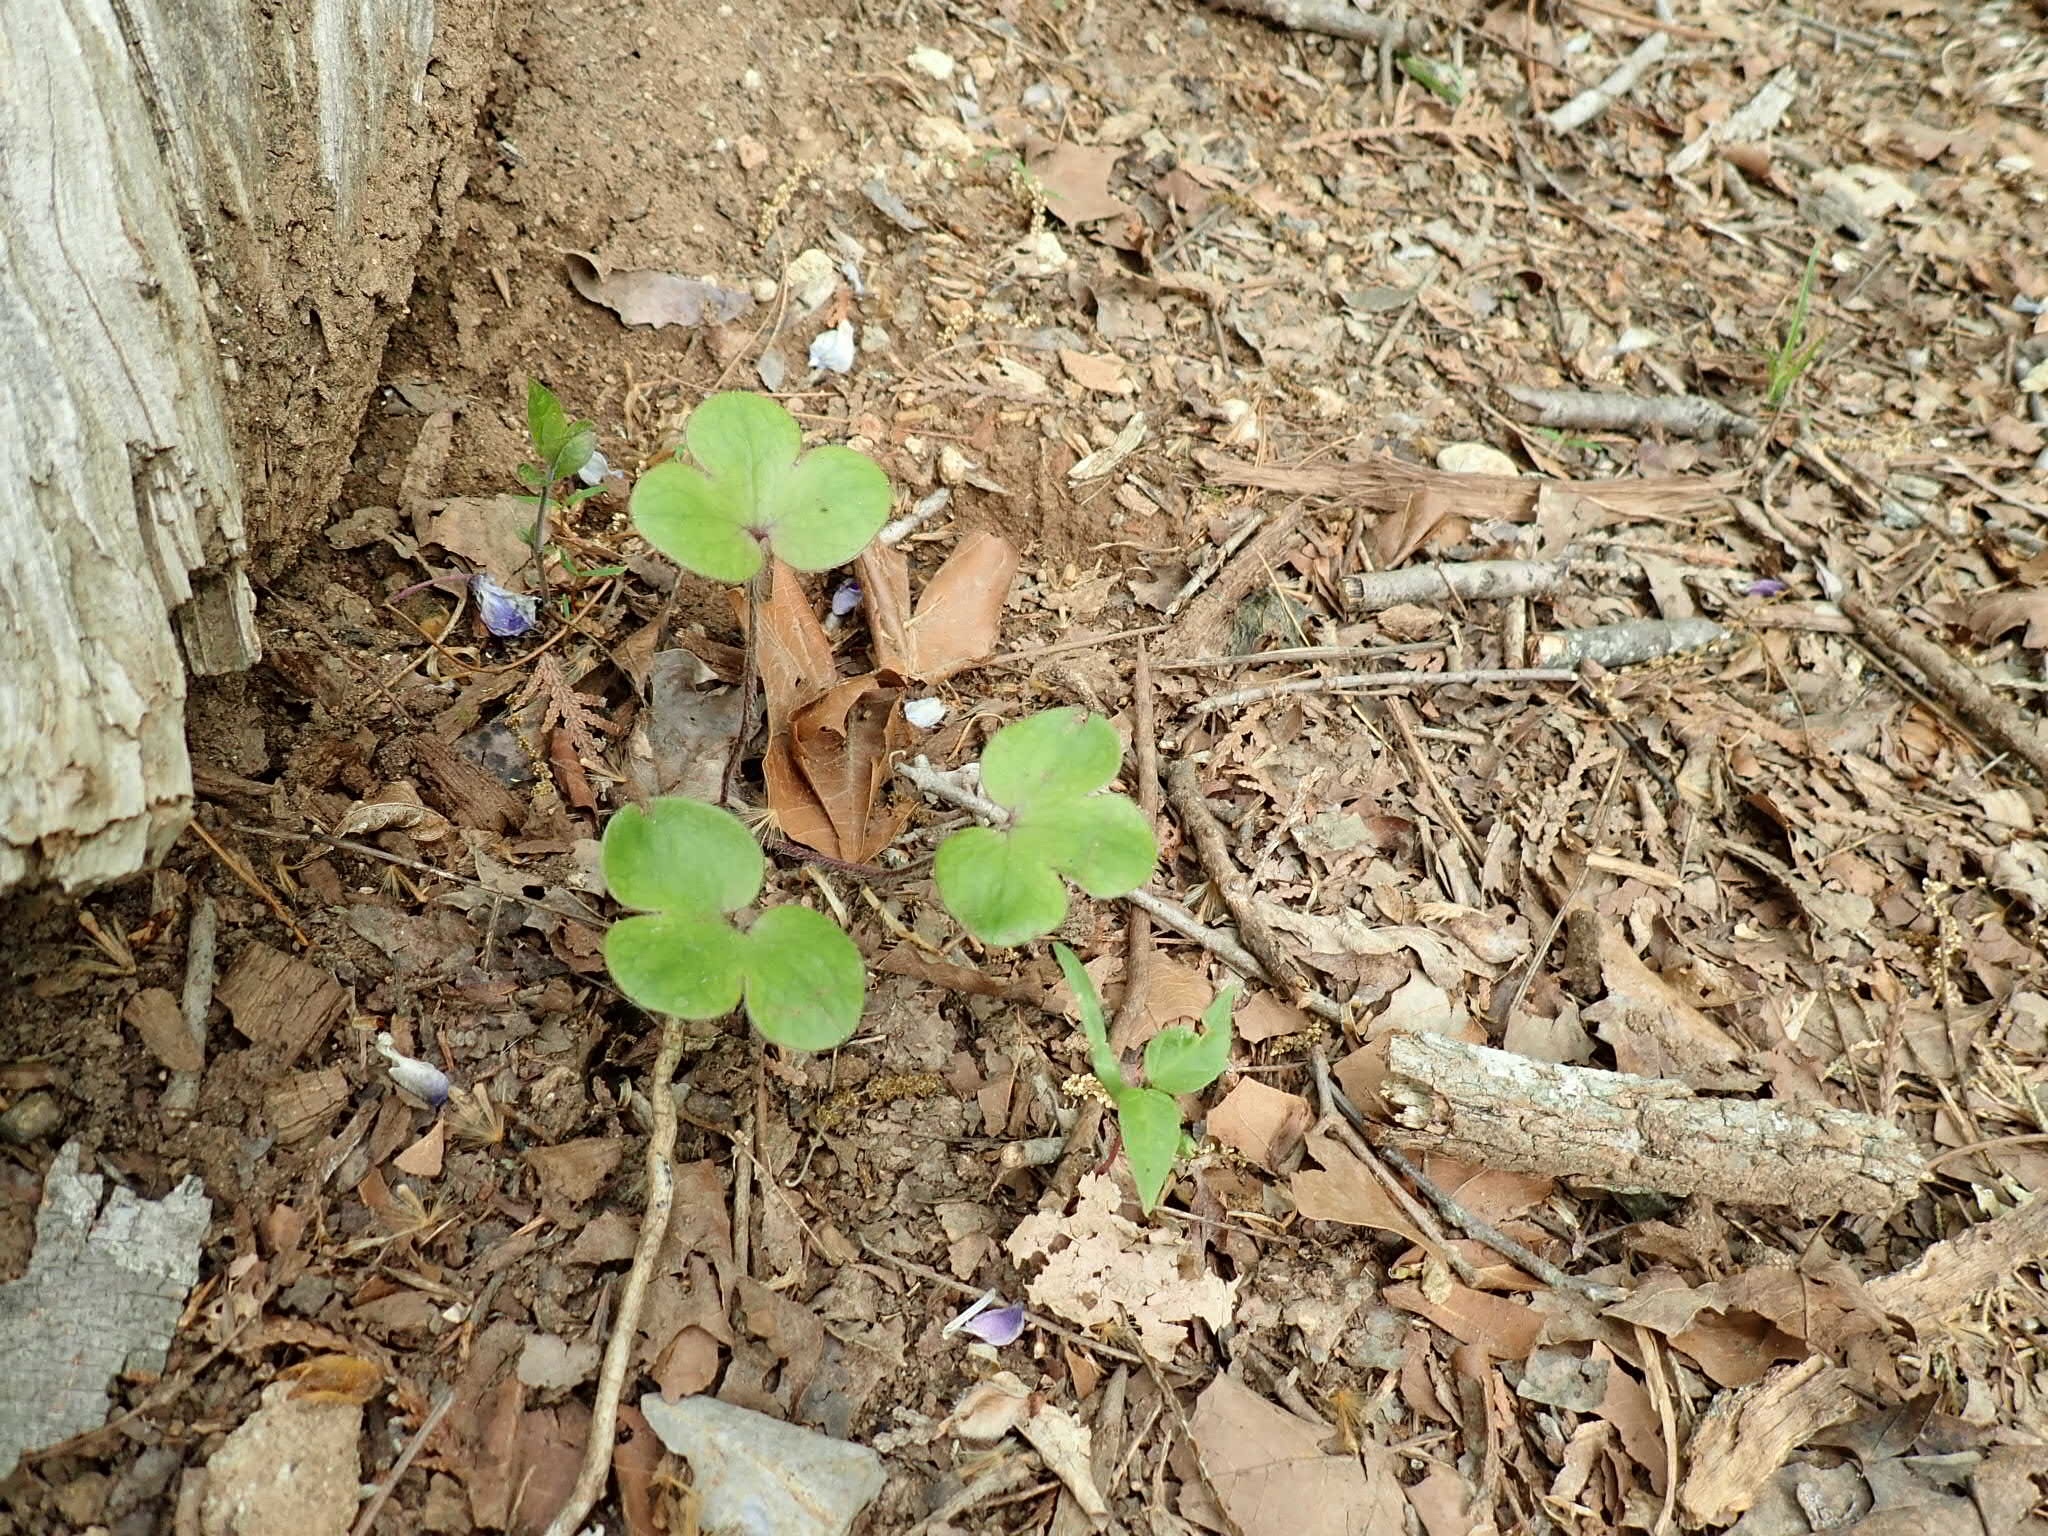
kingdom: Plantae
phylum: Tracheophyta
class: Magnoliopsida
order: Ranunculales
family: Ranunculaceae
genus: Hepatica
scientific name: Hepatica americana
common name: American hepatica
